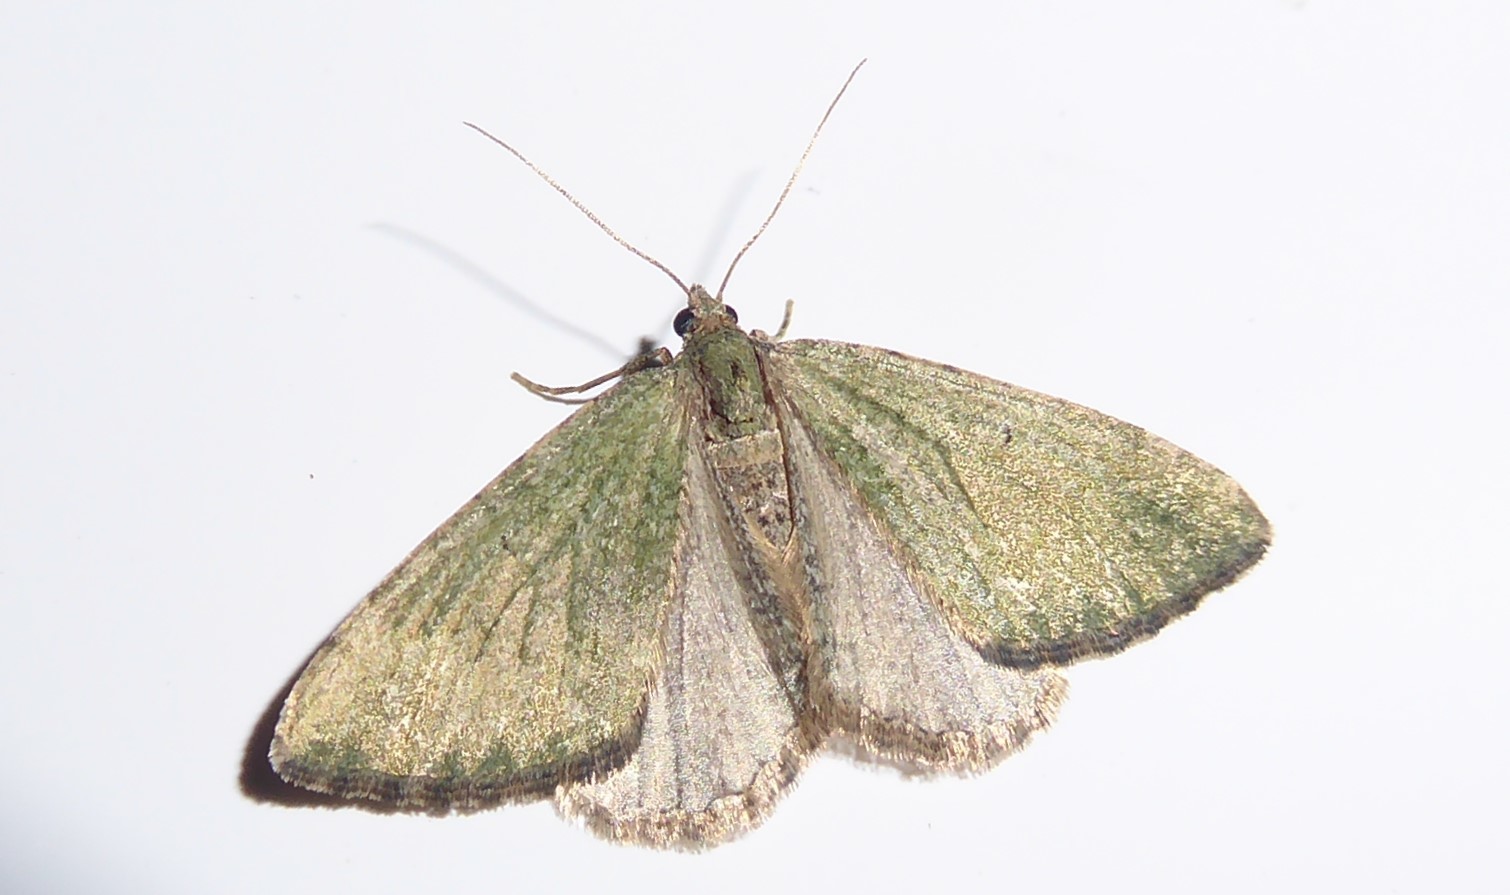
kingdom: Animalia
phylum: Arthropoda
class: Insecta
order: Lepidoptera
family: Geometridae
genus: Epyaxa
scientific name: Epyaxa rosearia
